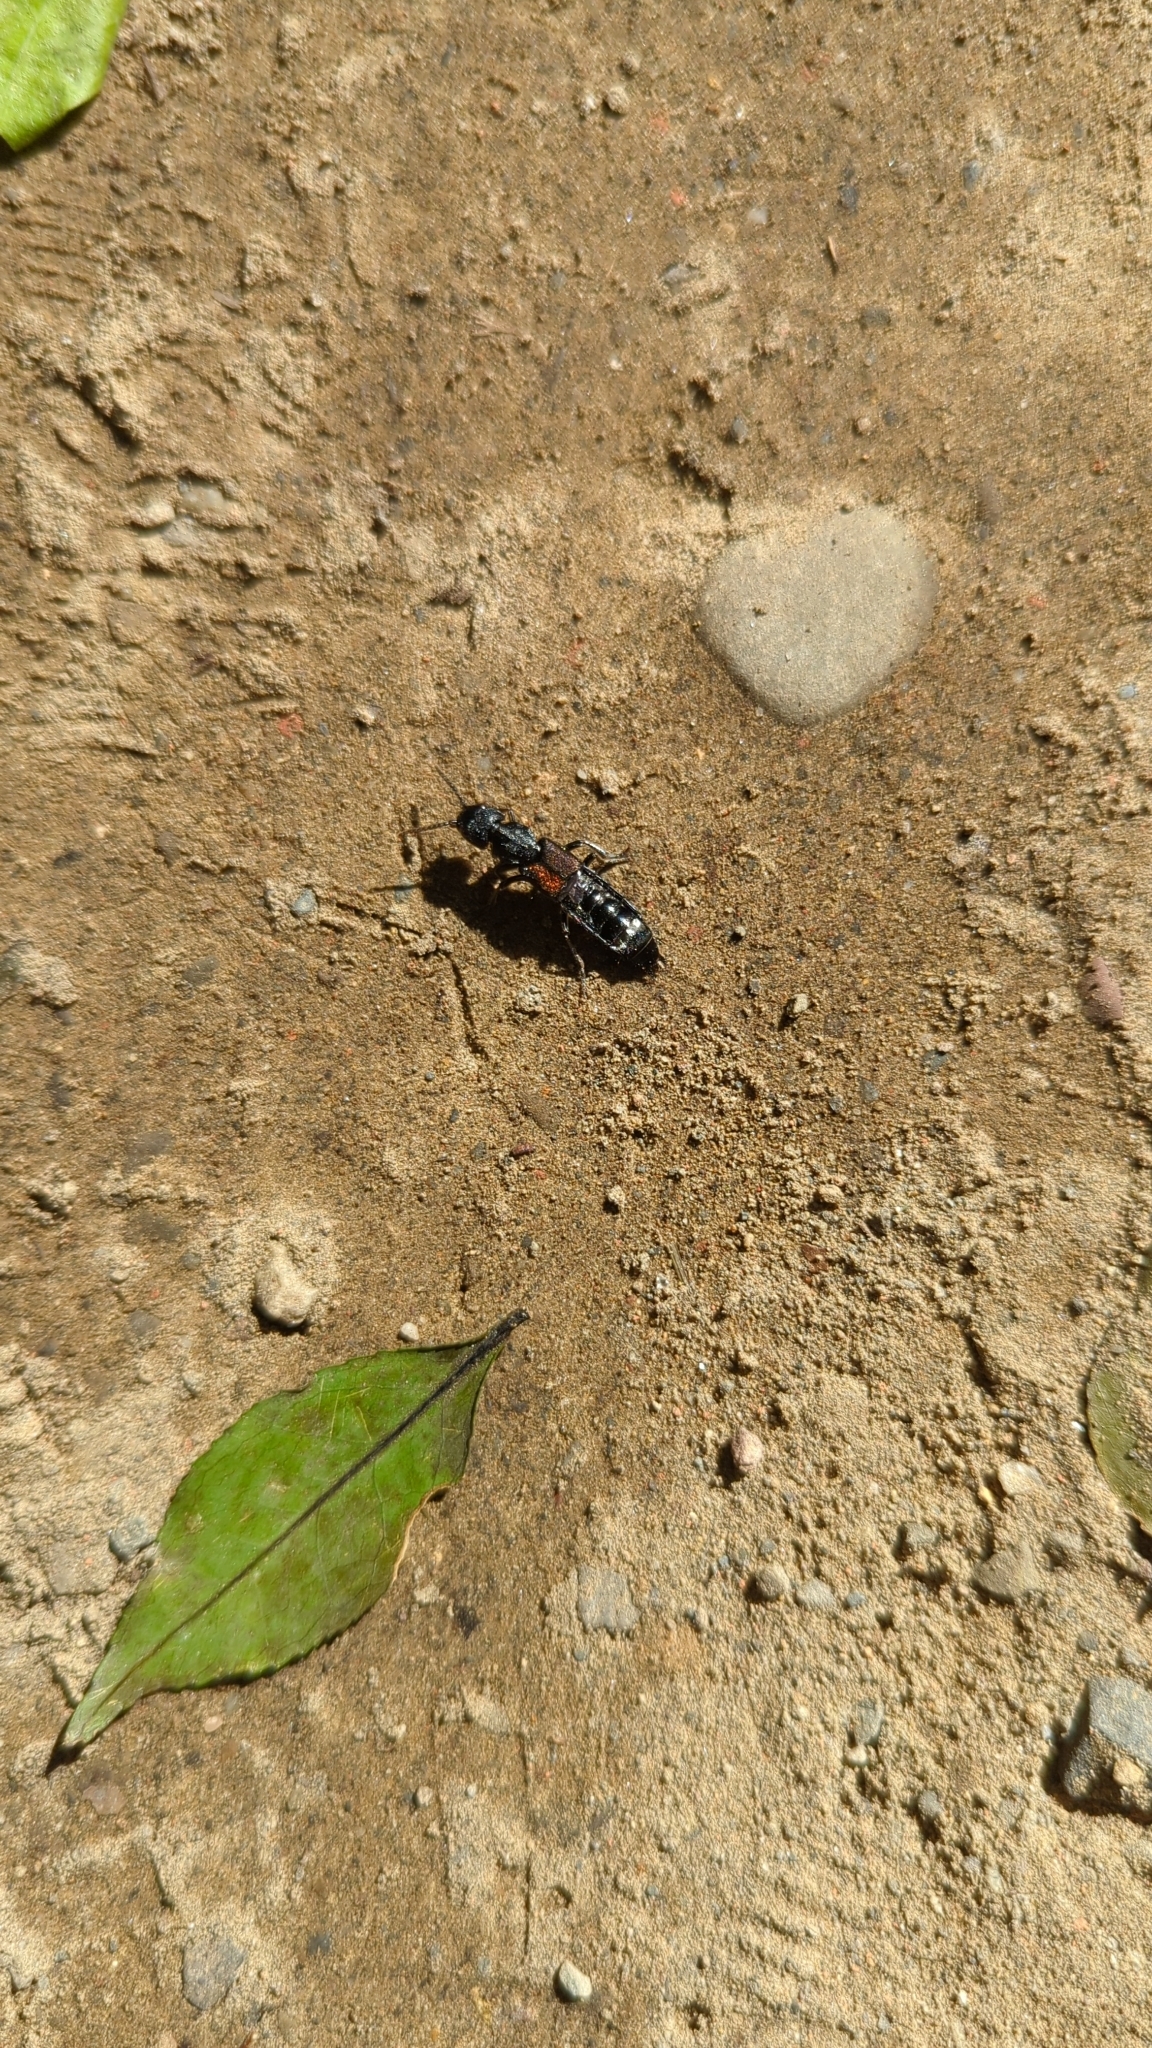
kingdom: Animalia
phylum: Arthropoda
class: Insecta
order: Coleoptera
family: Staphylinidae
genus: Naddia
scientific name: Naddia taiwanensis
